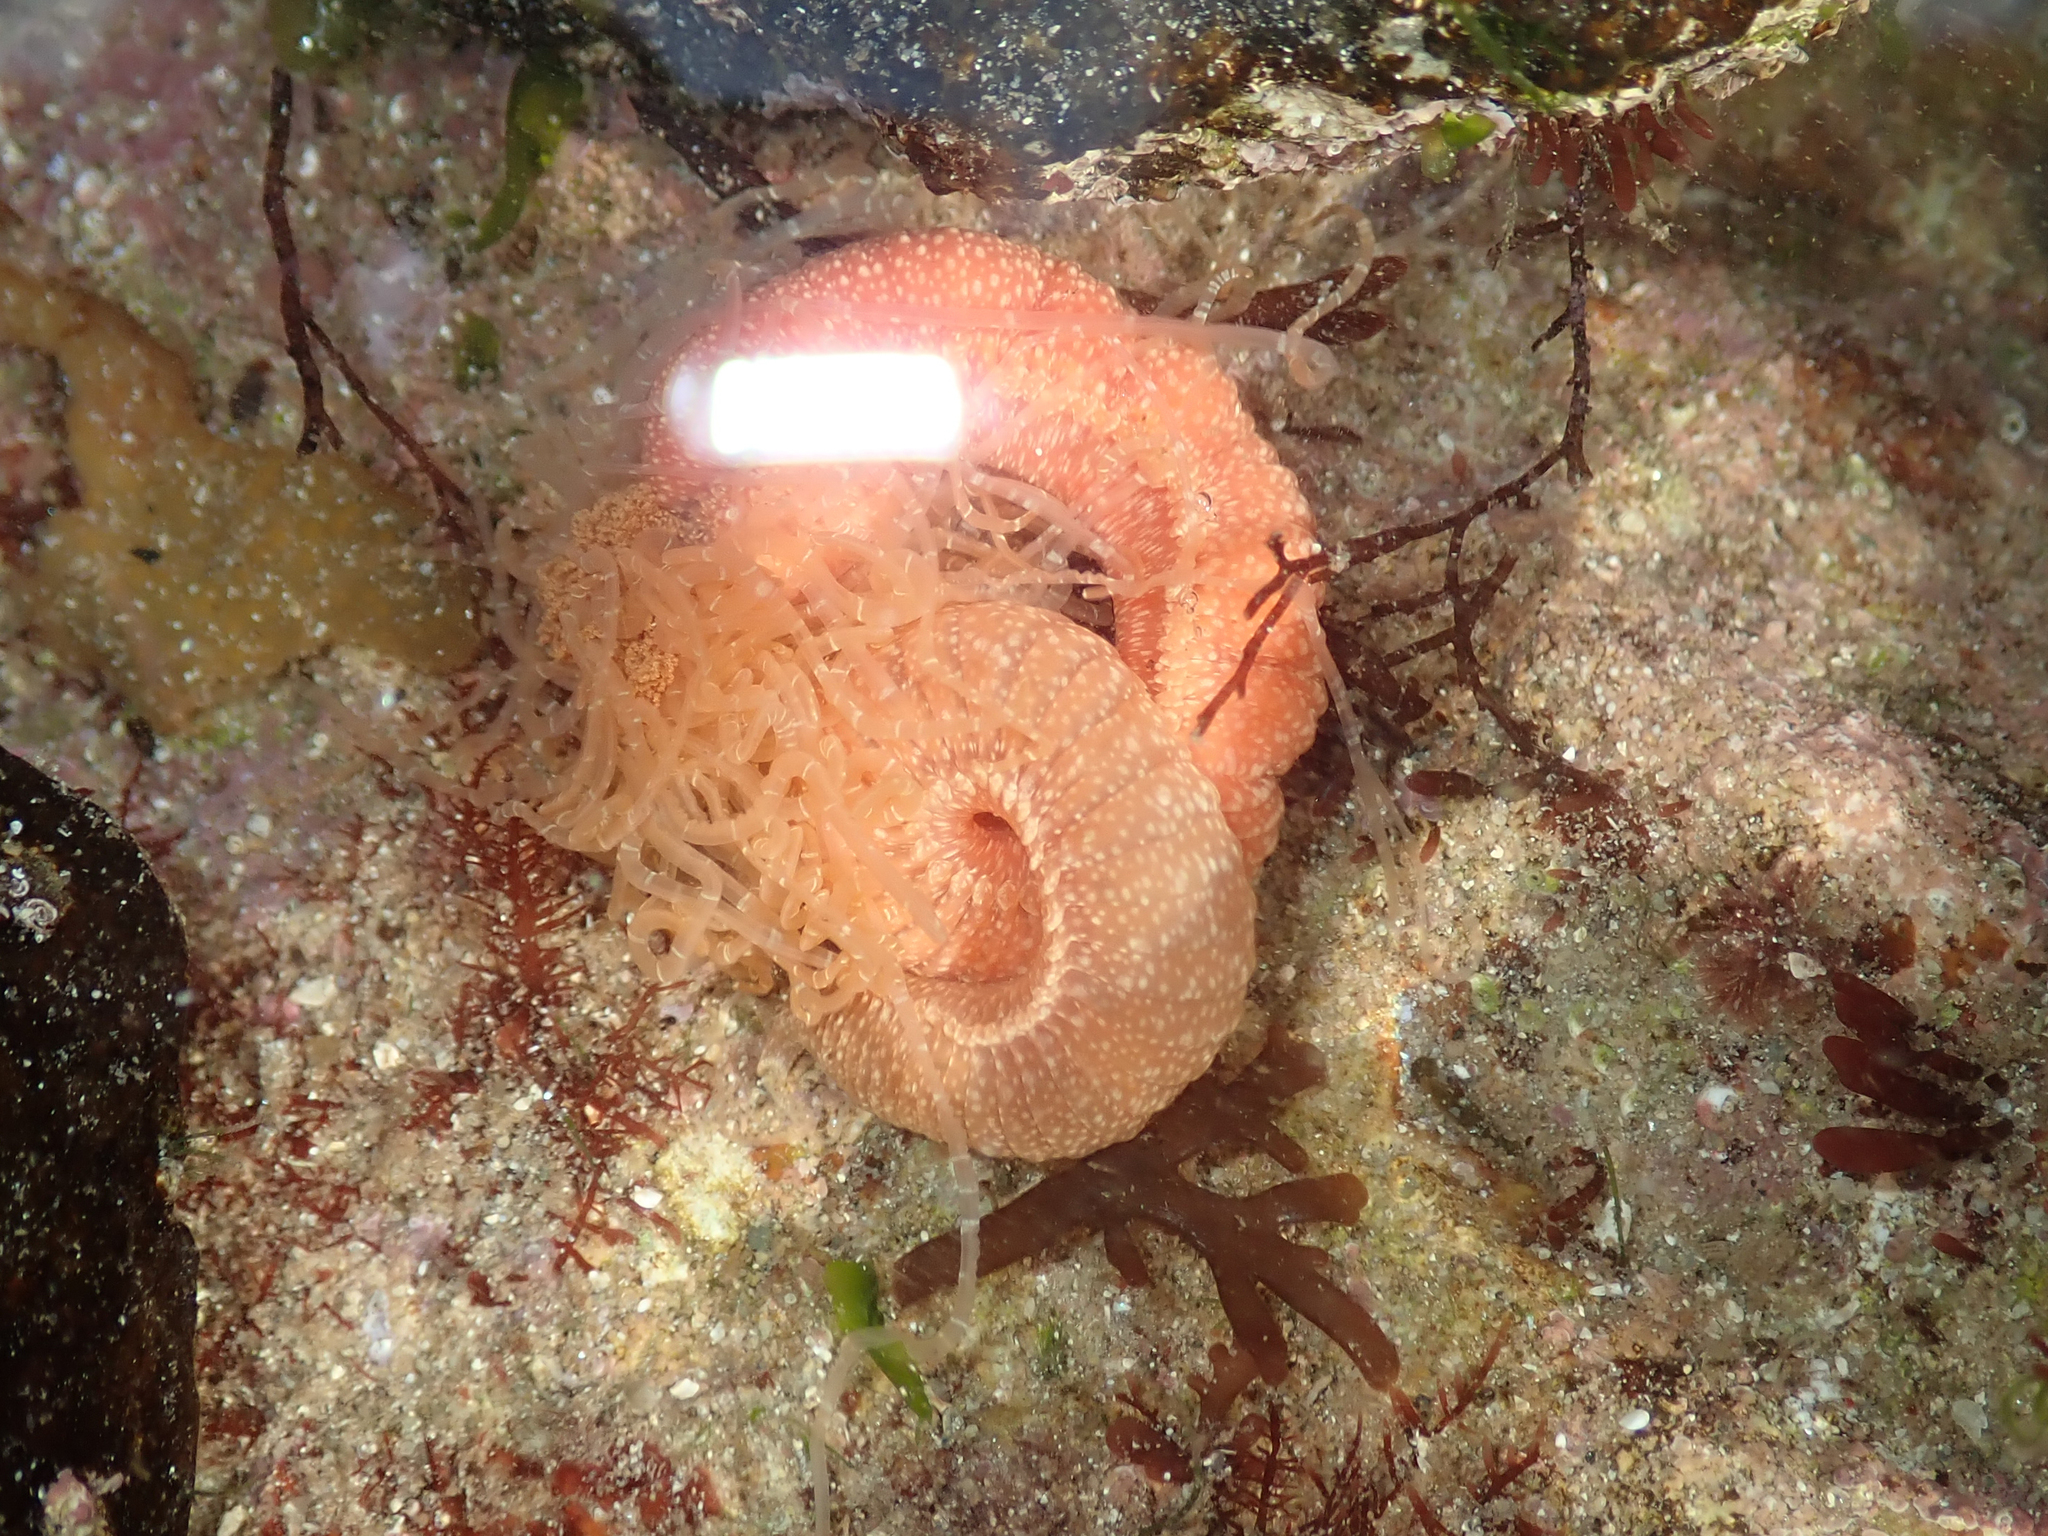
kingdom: Animalia
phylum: Annelida
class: Polychaeta
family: Terebellidae
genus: Eupolymnia
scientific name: Eupolymnia nebulosa
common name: Strawberry worm
